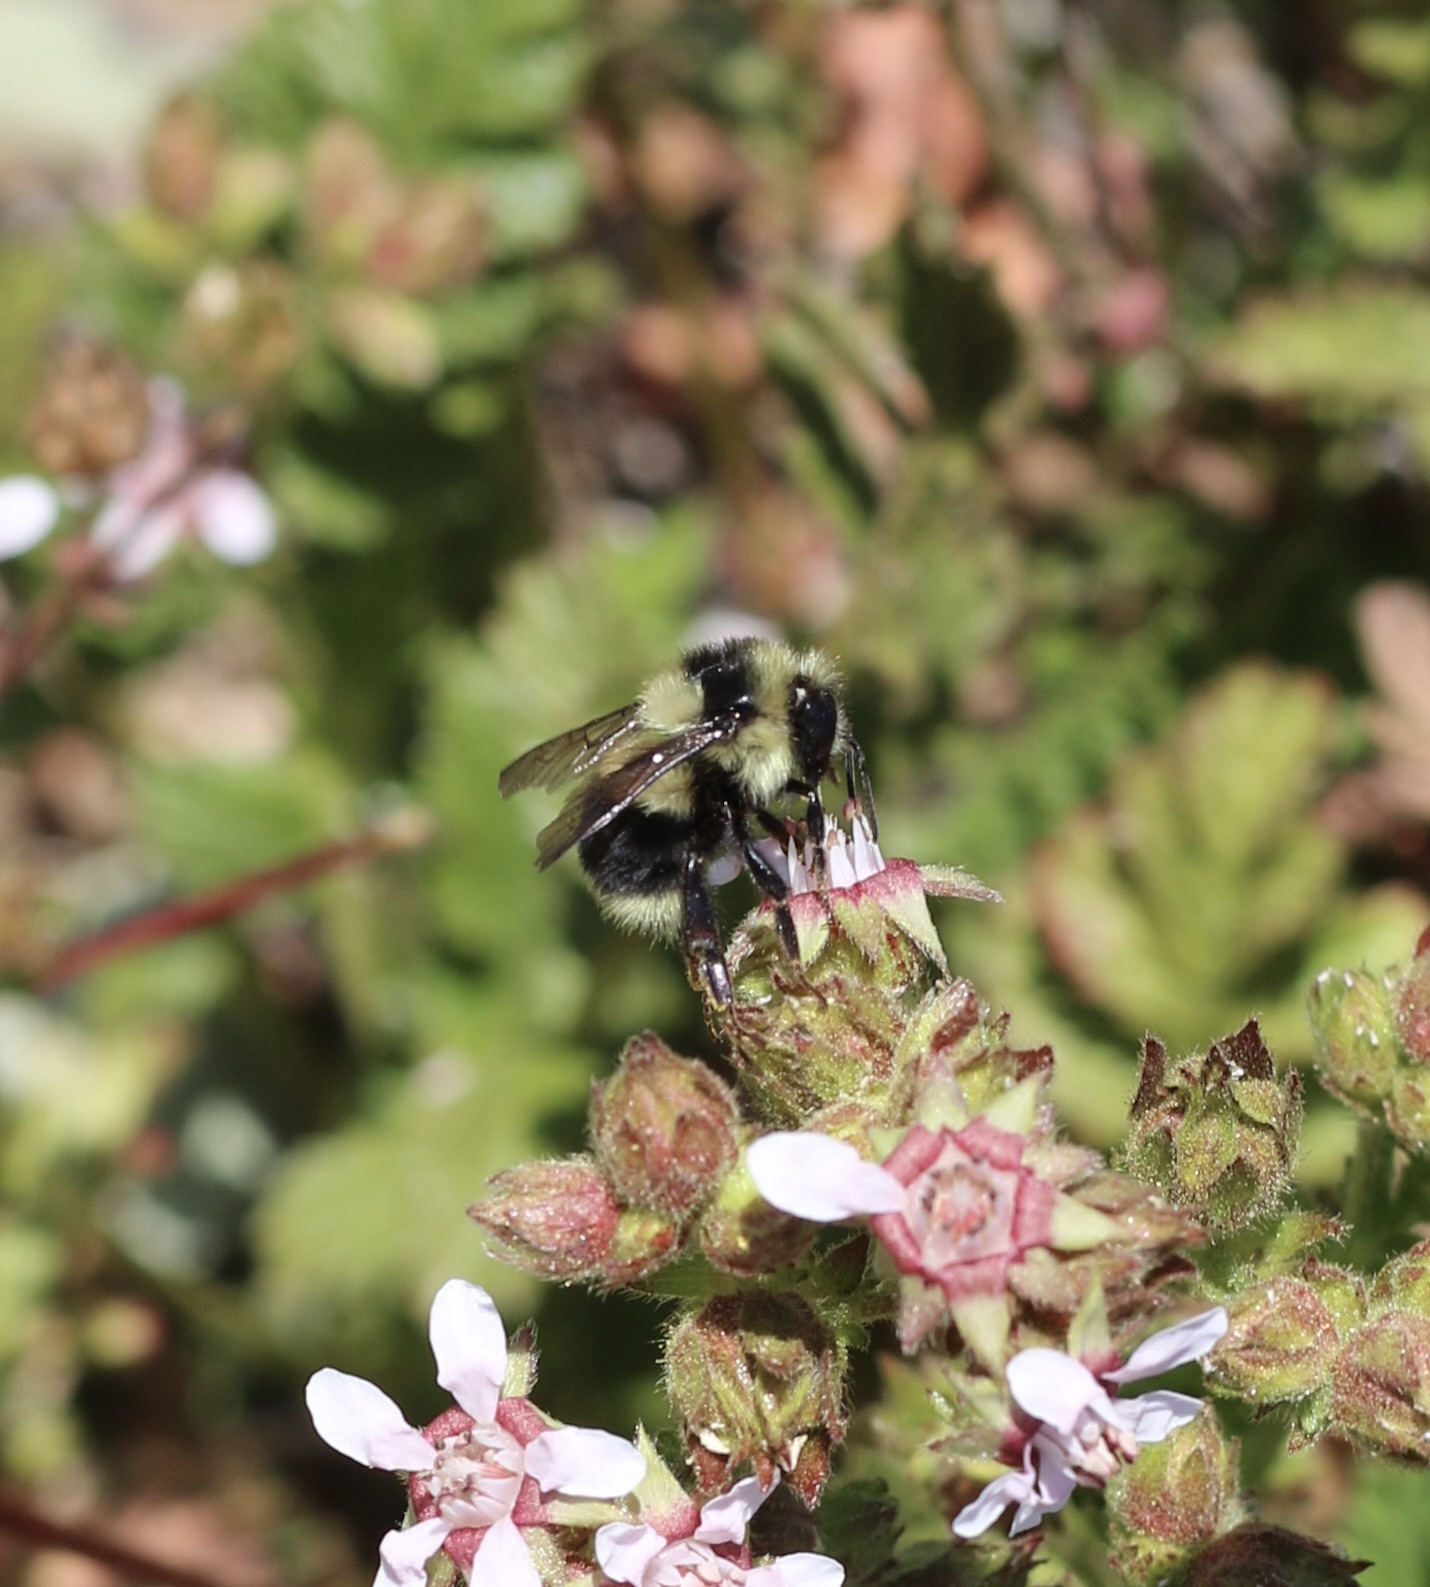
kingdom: Animalia
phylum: Arthropoda
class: Insecta
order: Hymenoptera
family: Apidae
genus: Bombus
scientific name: Bombus melanopygus
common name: Black tail bumble bee
